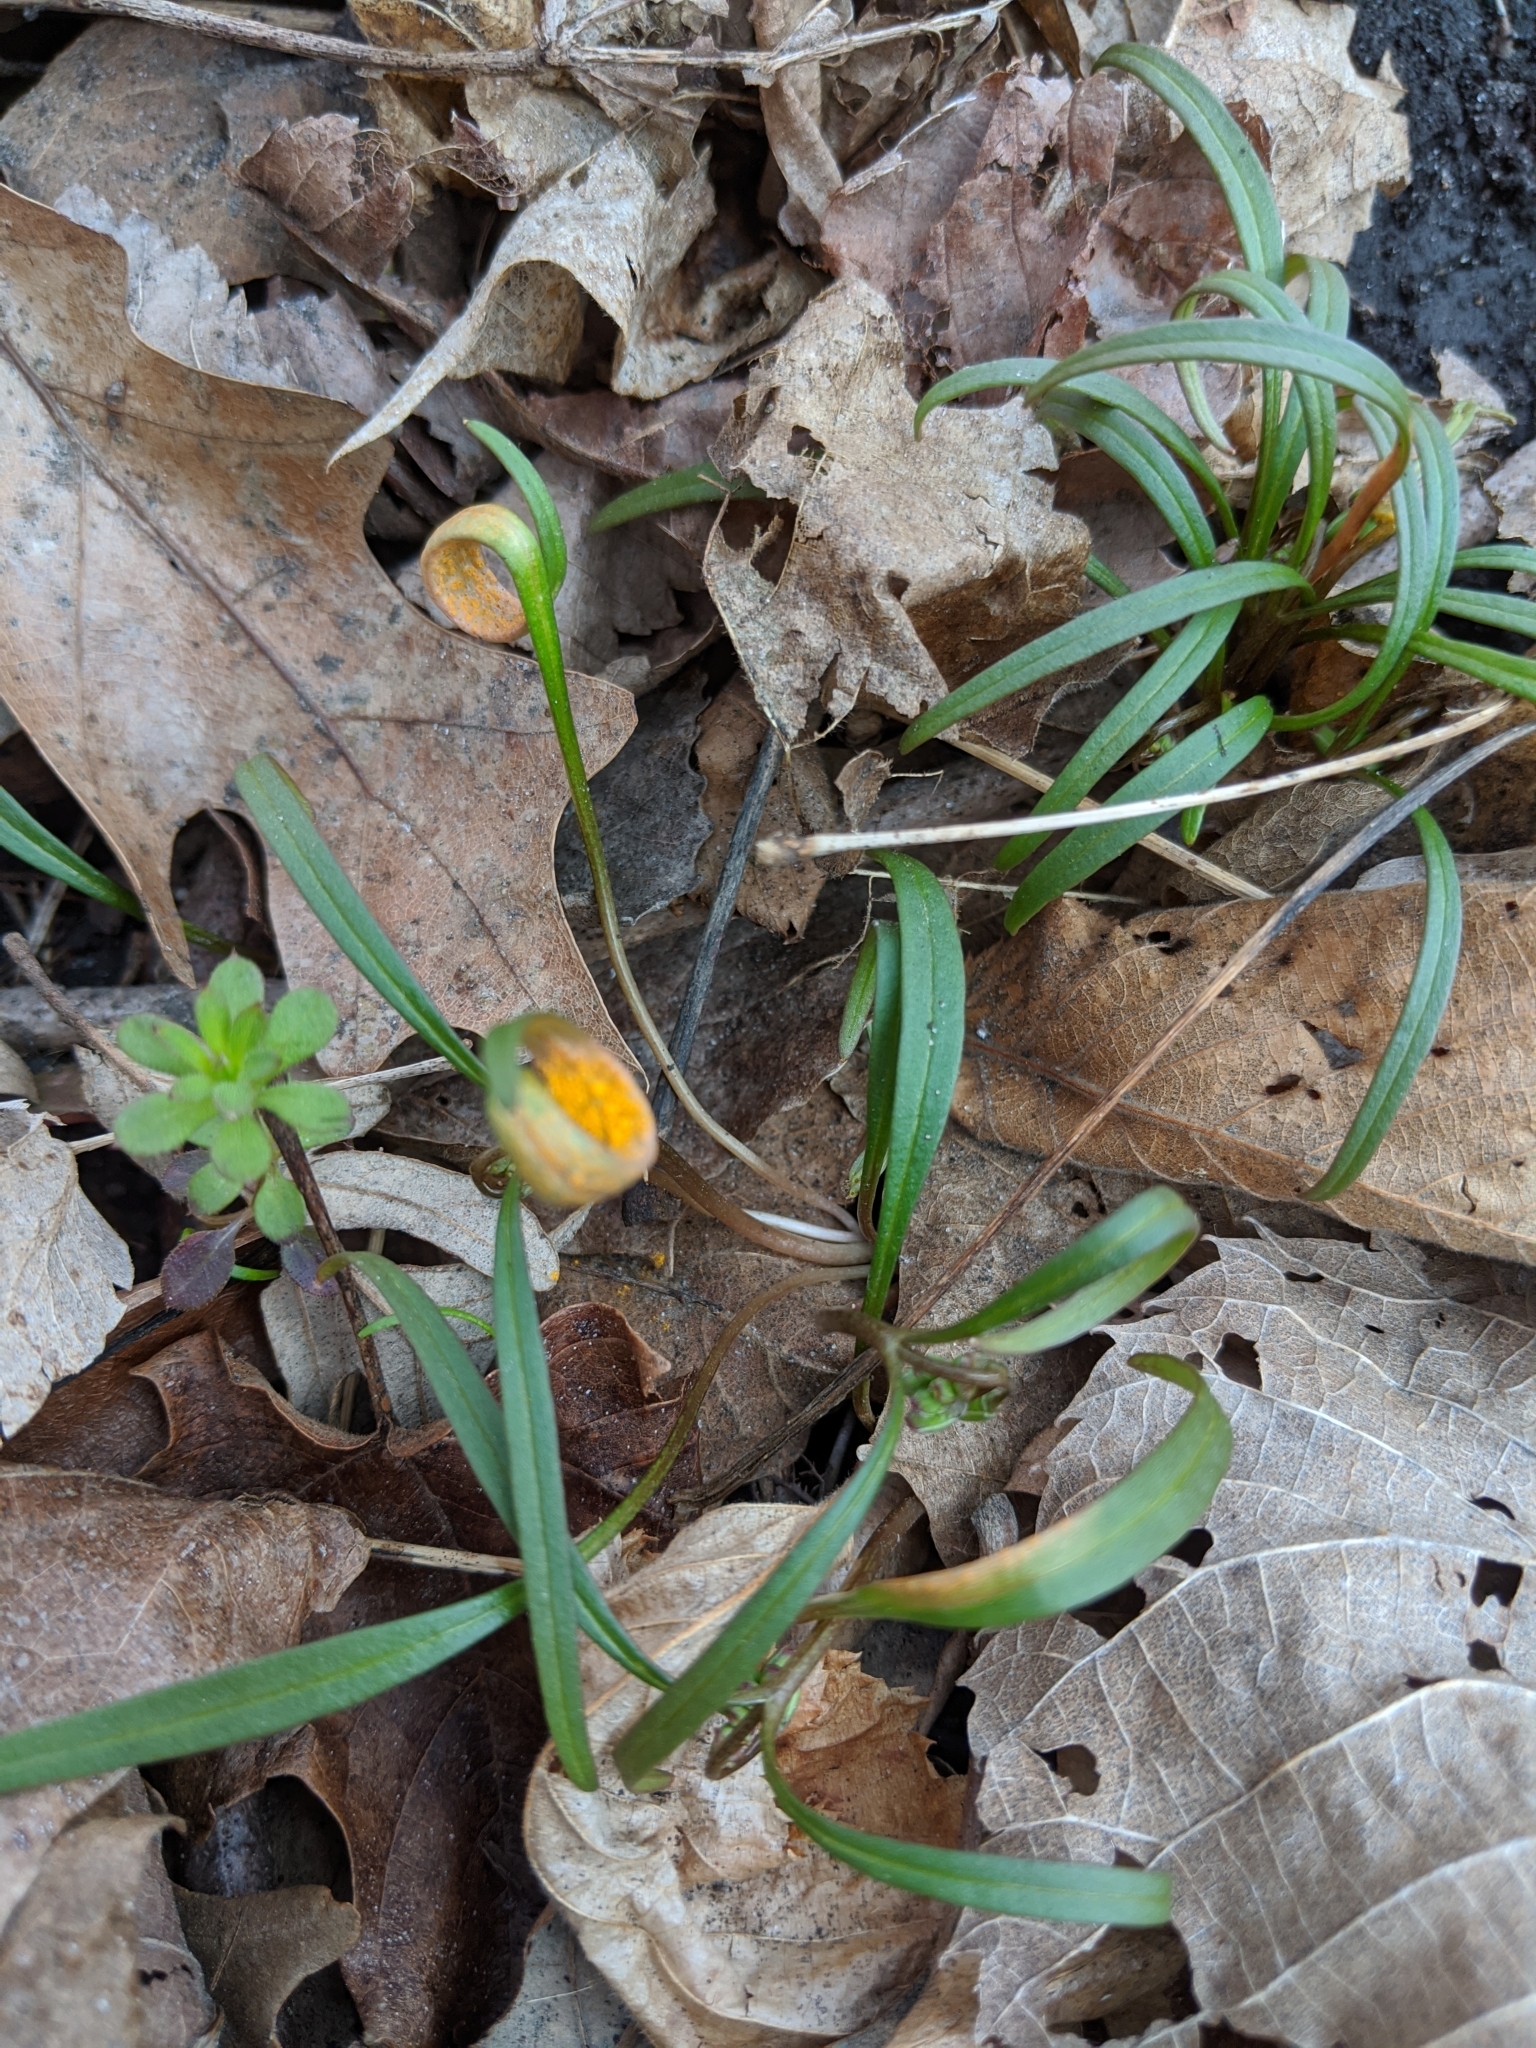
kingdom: Fungi
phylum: Basidiomycota
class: Pucciniomycetes
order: Pucciniales
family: Pucciniaceae
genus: Puccinia
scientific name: Puccinia mariae-wilsoniae
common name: Spring beauty rust
